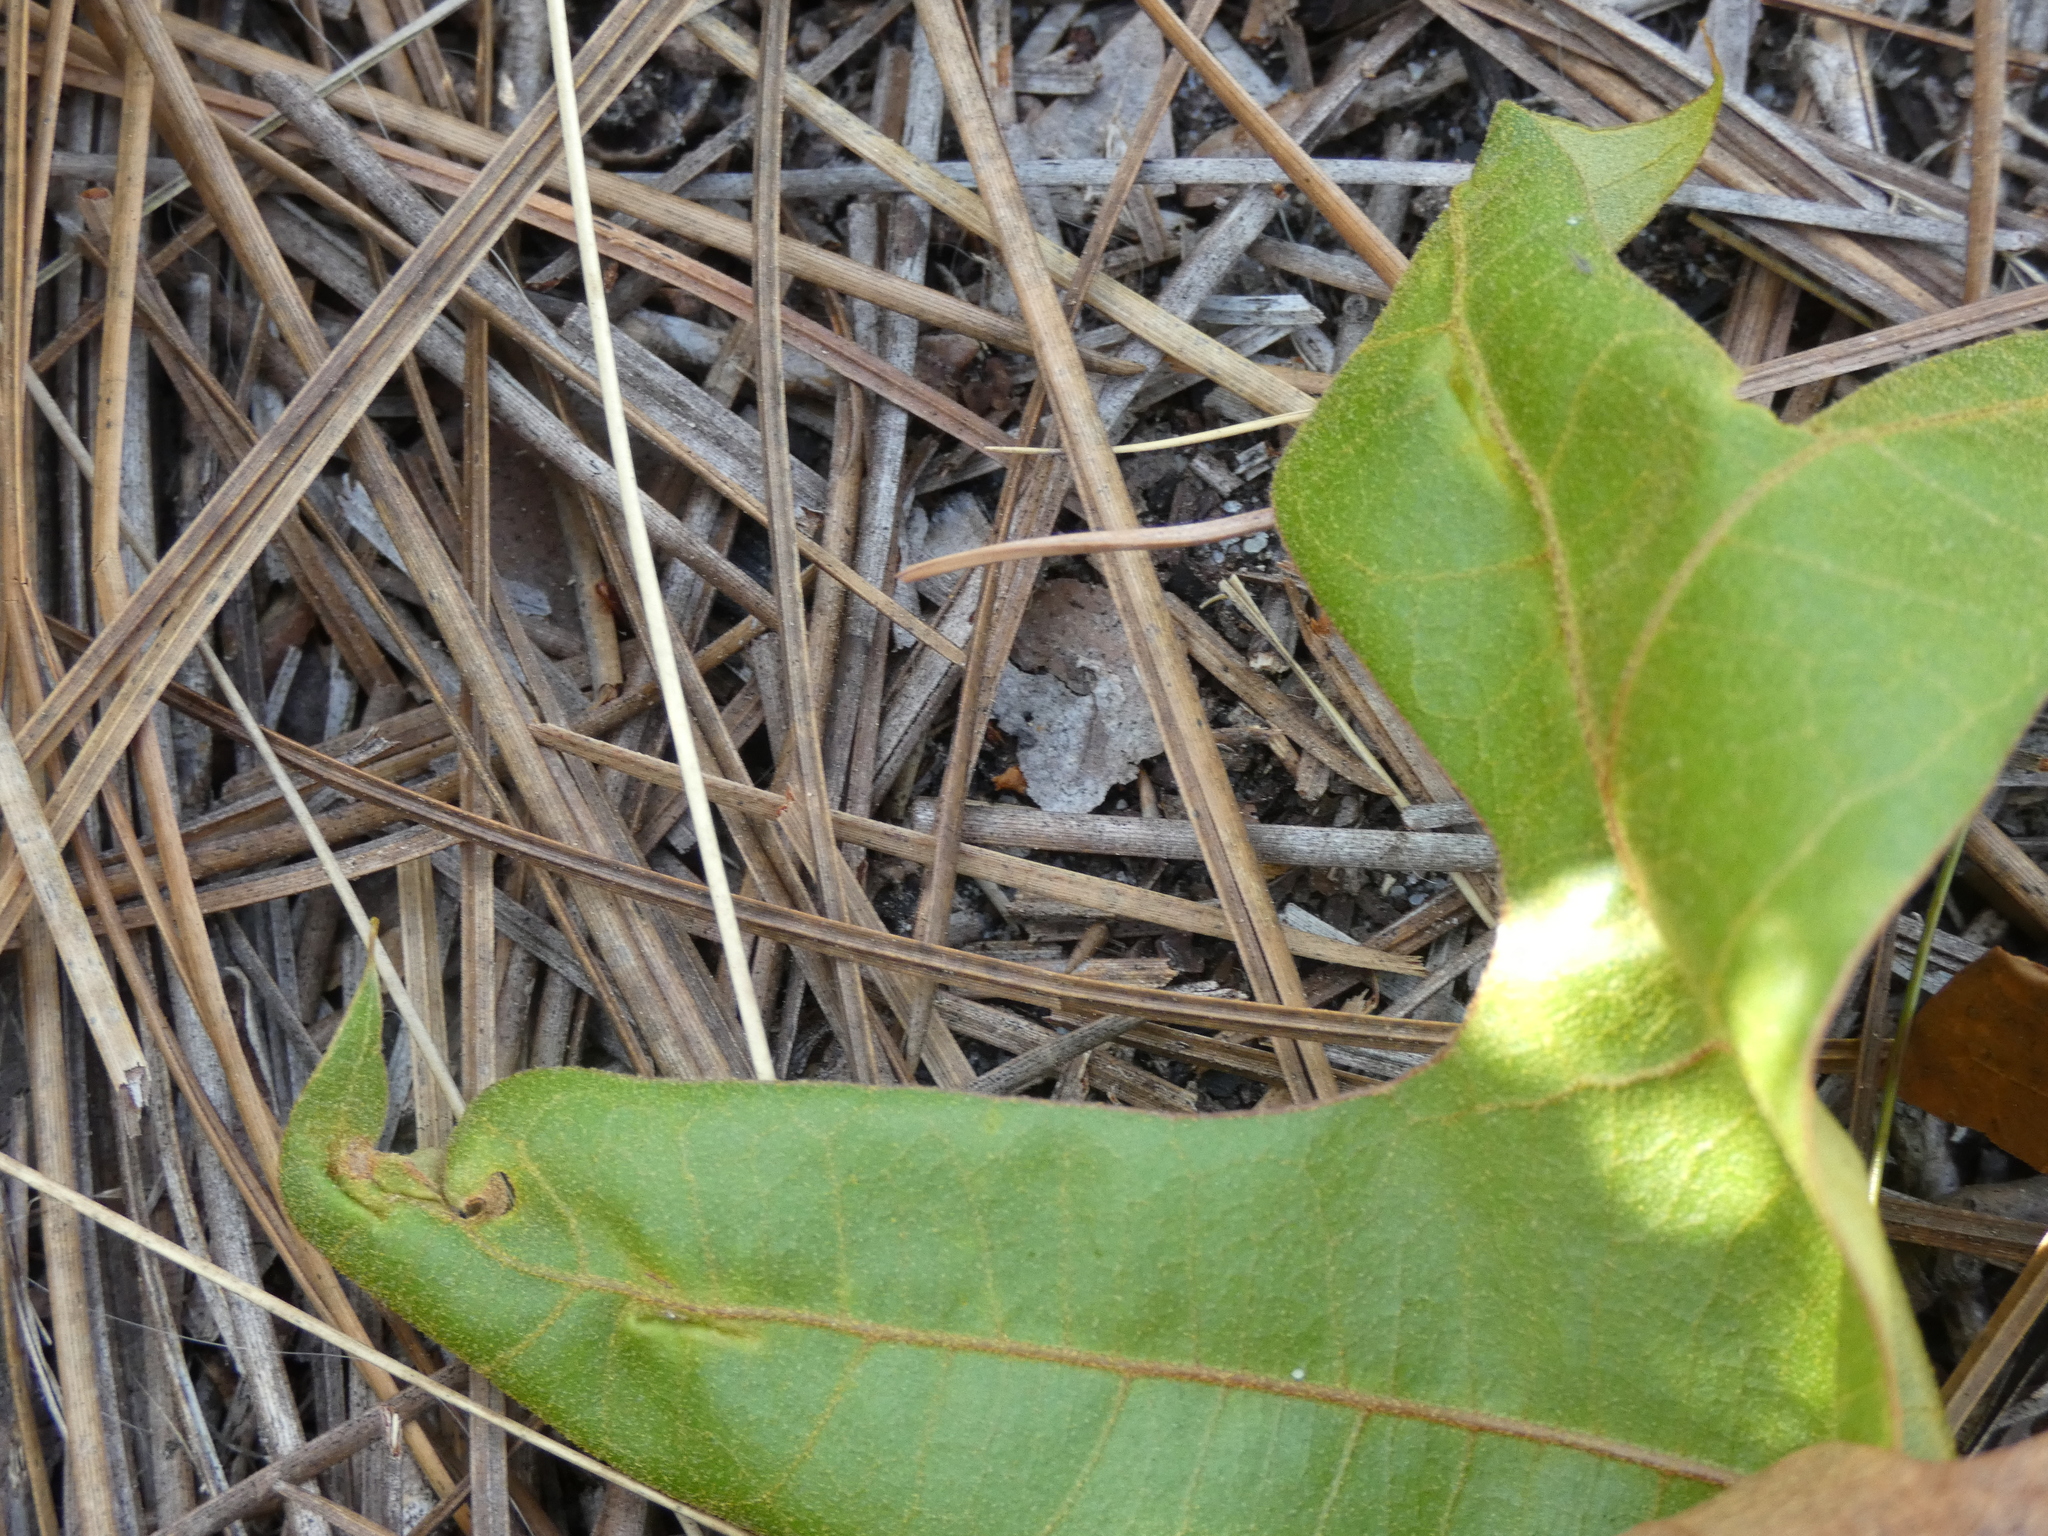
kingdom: Animalia
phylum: Arthropoda
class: Insecta
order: Diptera
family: Cecidomyiidae
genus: Macrodiplosis
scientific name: Macrodiplosis majalis
